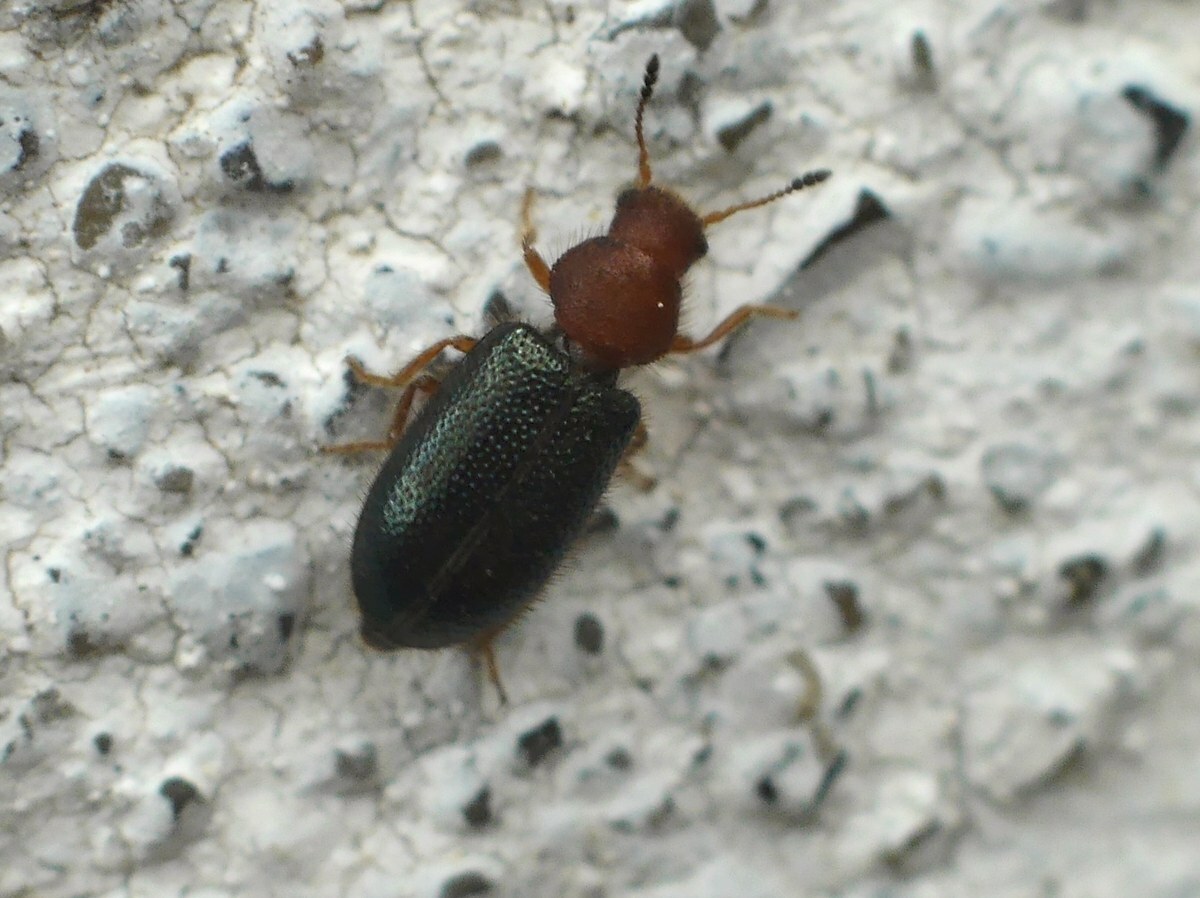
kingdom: Animalia
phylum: Arthropoda
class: Insecta
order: Coleoptera
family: Cleridae
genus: Opetiopalpus
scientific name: Opetiopalpus scutellaris
